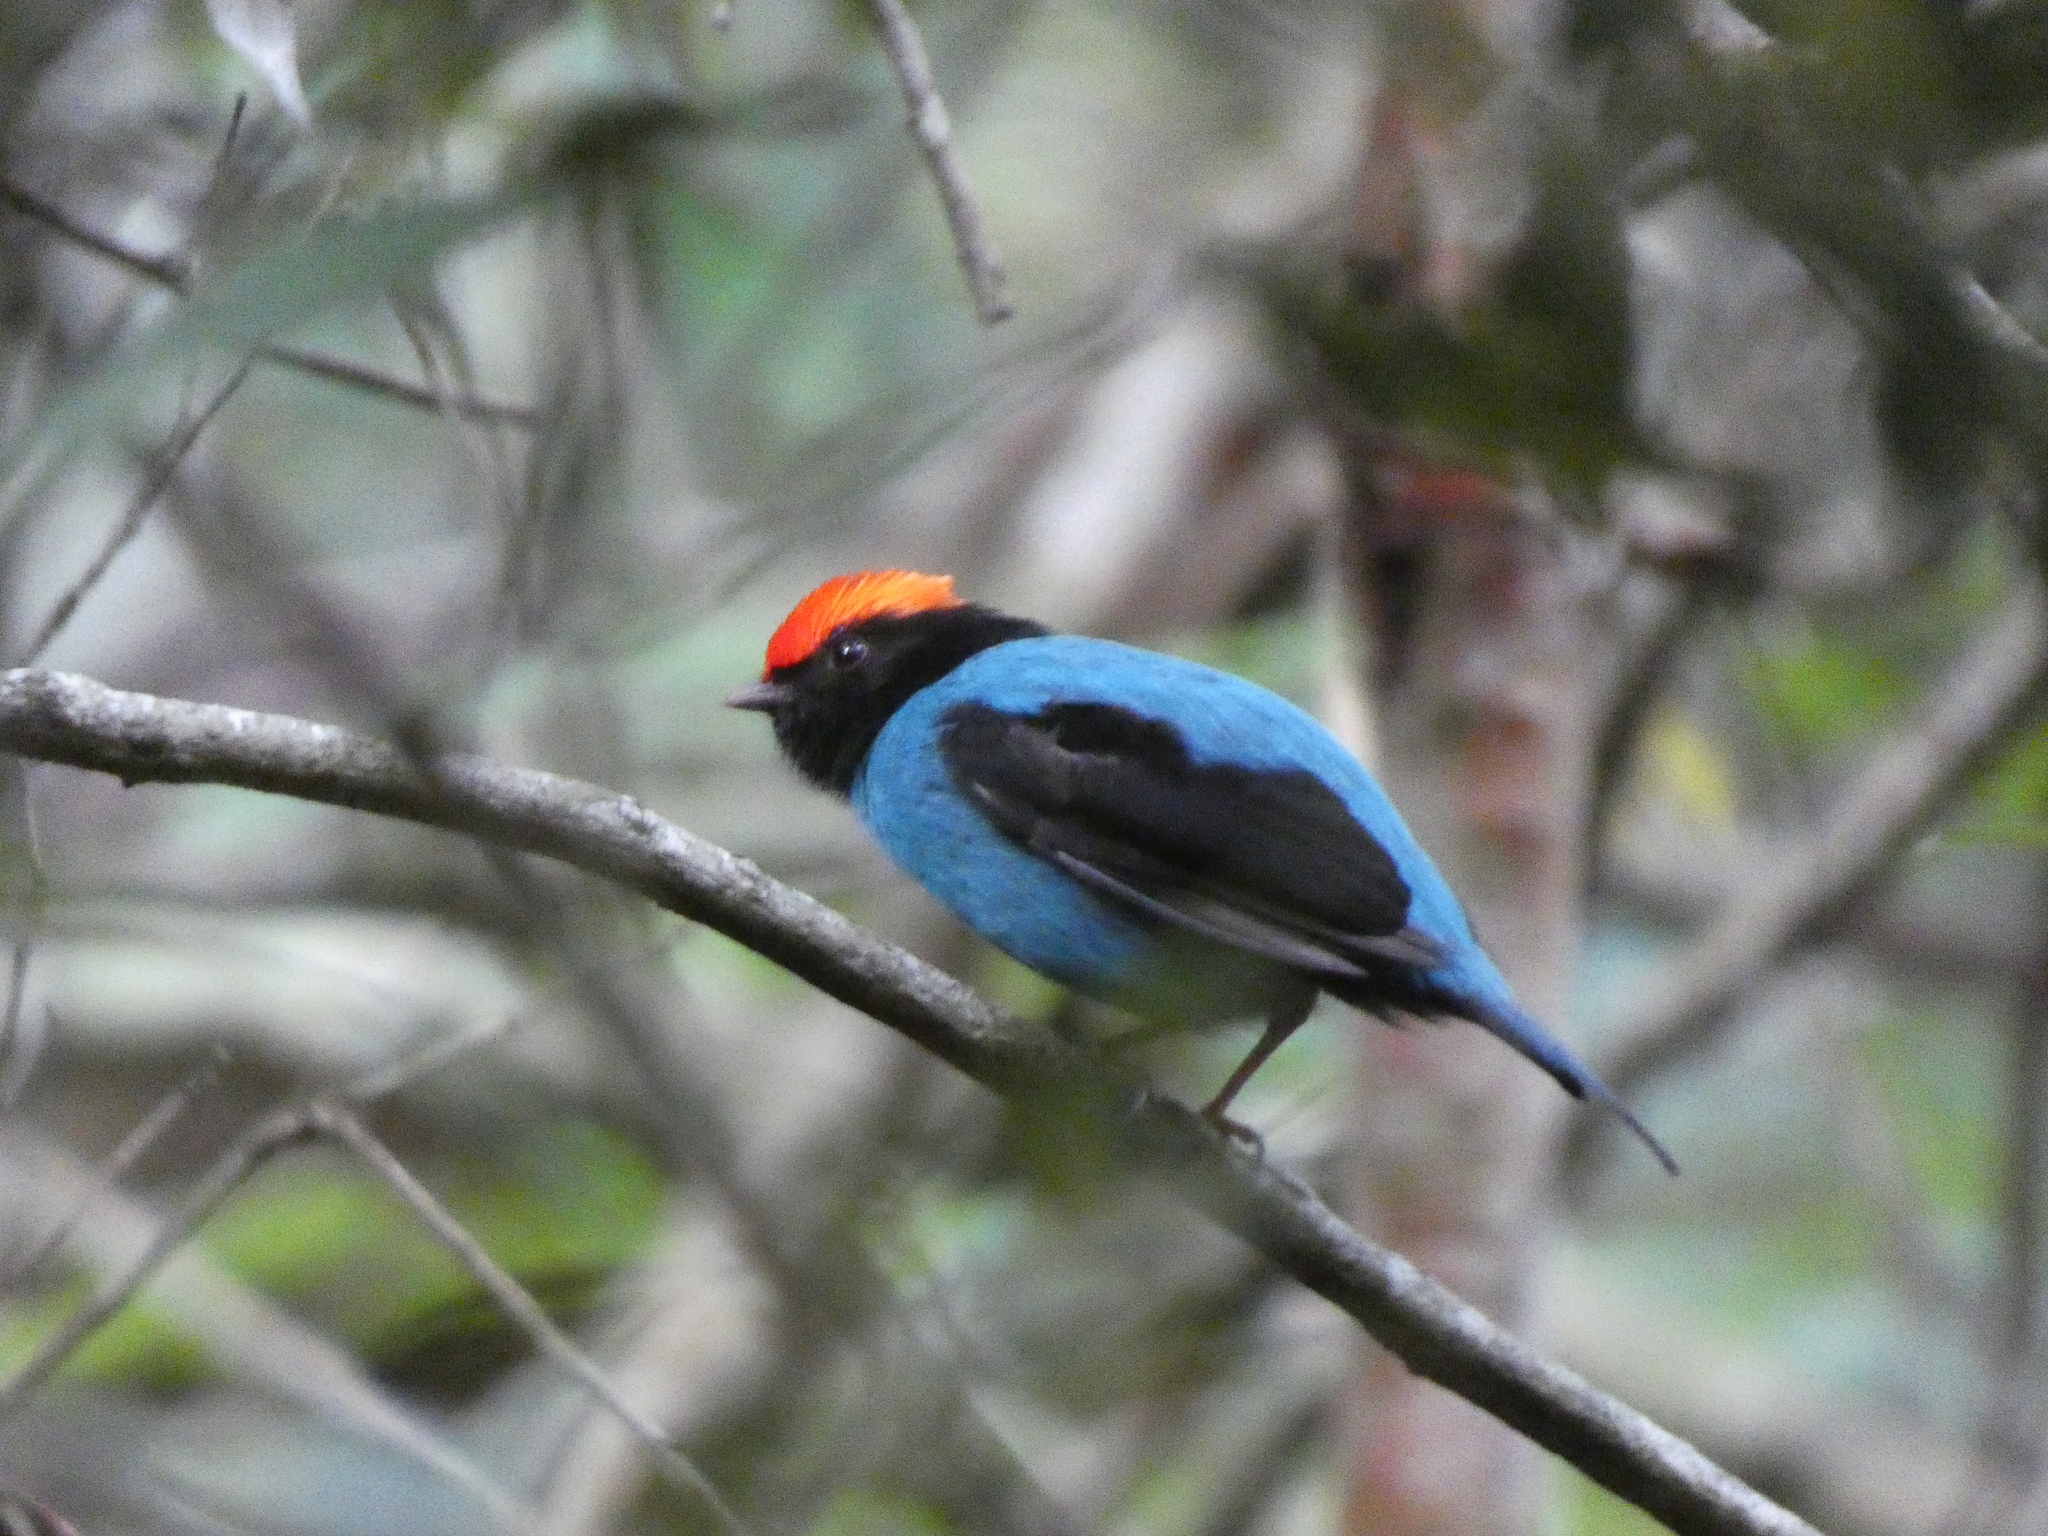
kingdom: Animalia
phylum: Chordata
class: Aves
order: Passeriformes
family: Pipridae
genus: Chiroxiphia
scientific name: Chiroxiphia caudata
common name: Blue manakin
